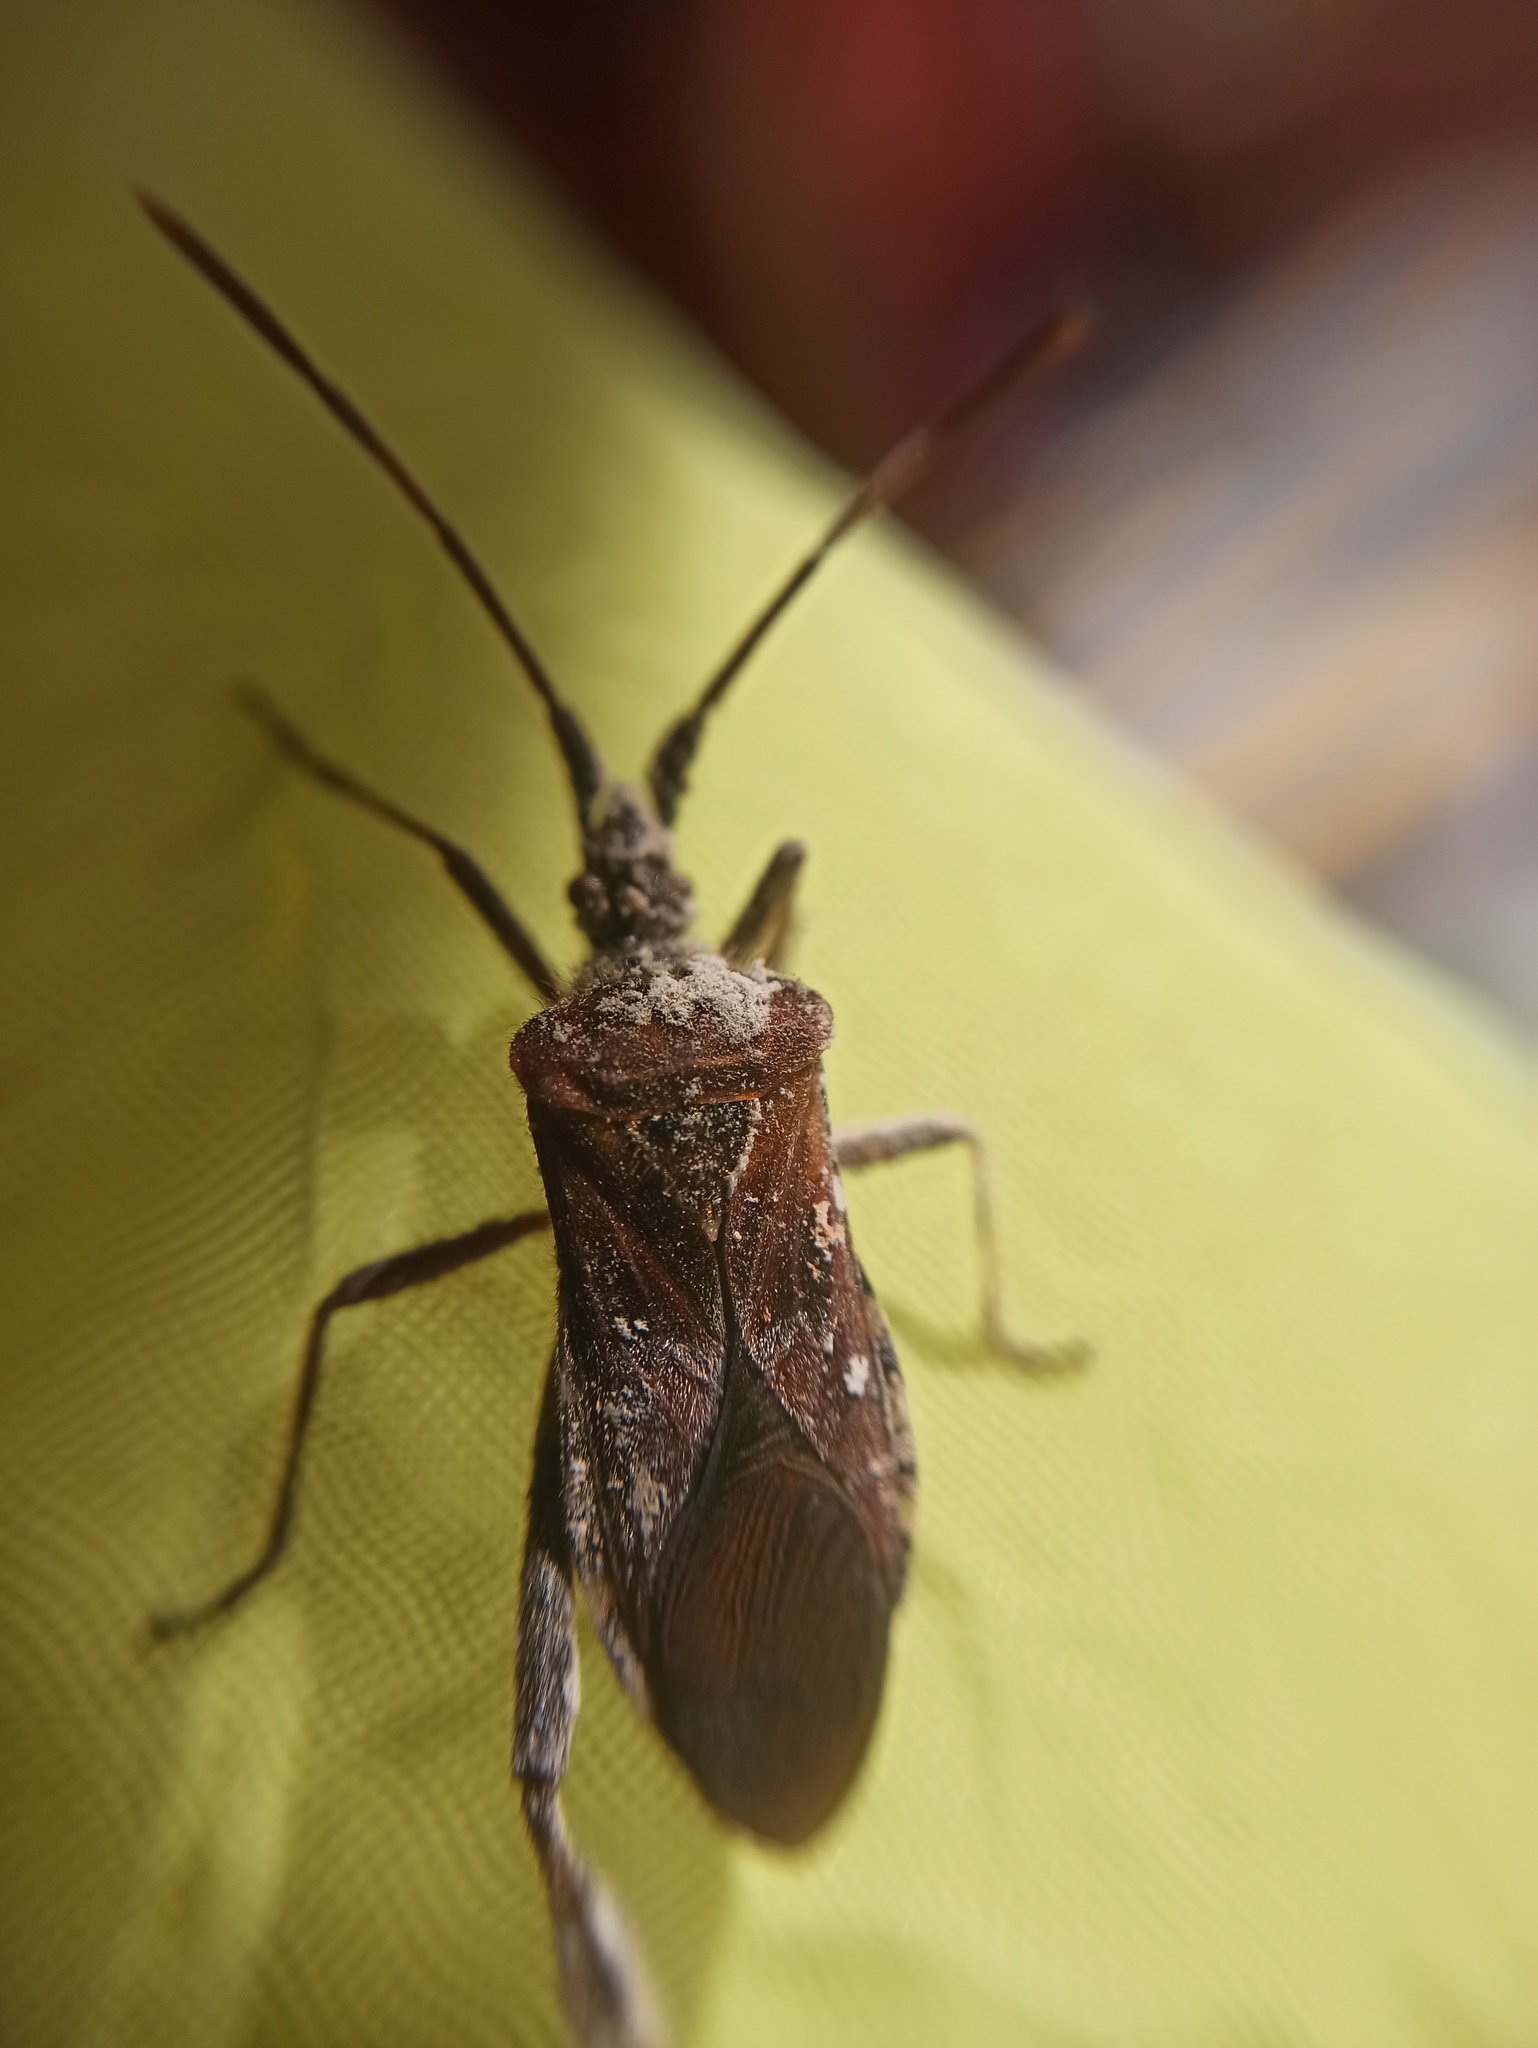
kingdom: Animalia
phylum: Arthropoda
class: Insecta
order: Hemiptera
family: Coreidae
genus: Leptoglossus
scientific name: Leptoglossus occidentalis
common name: Western conifer-seed bug
